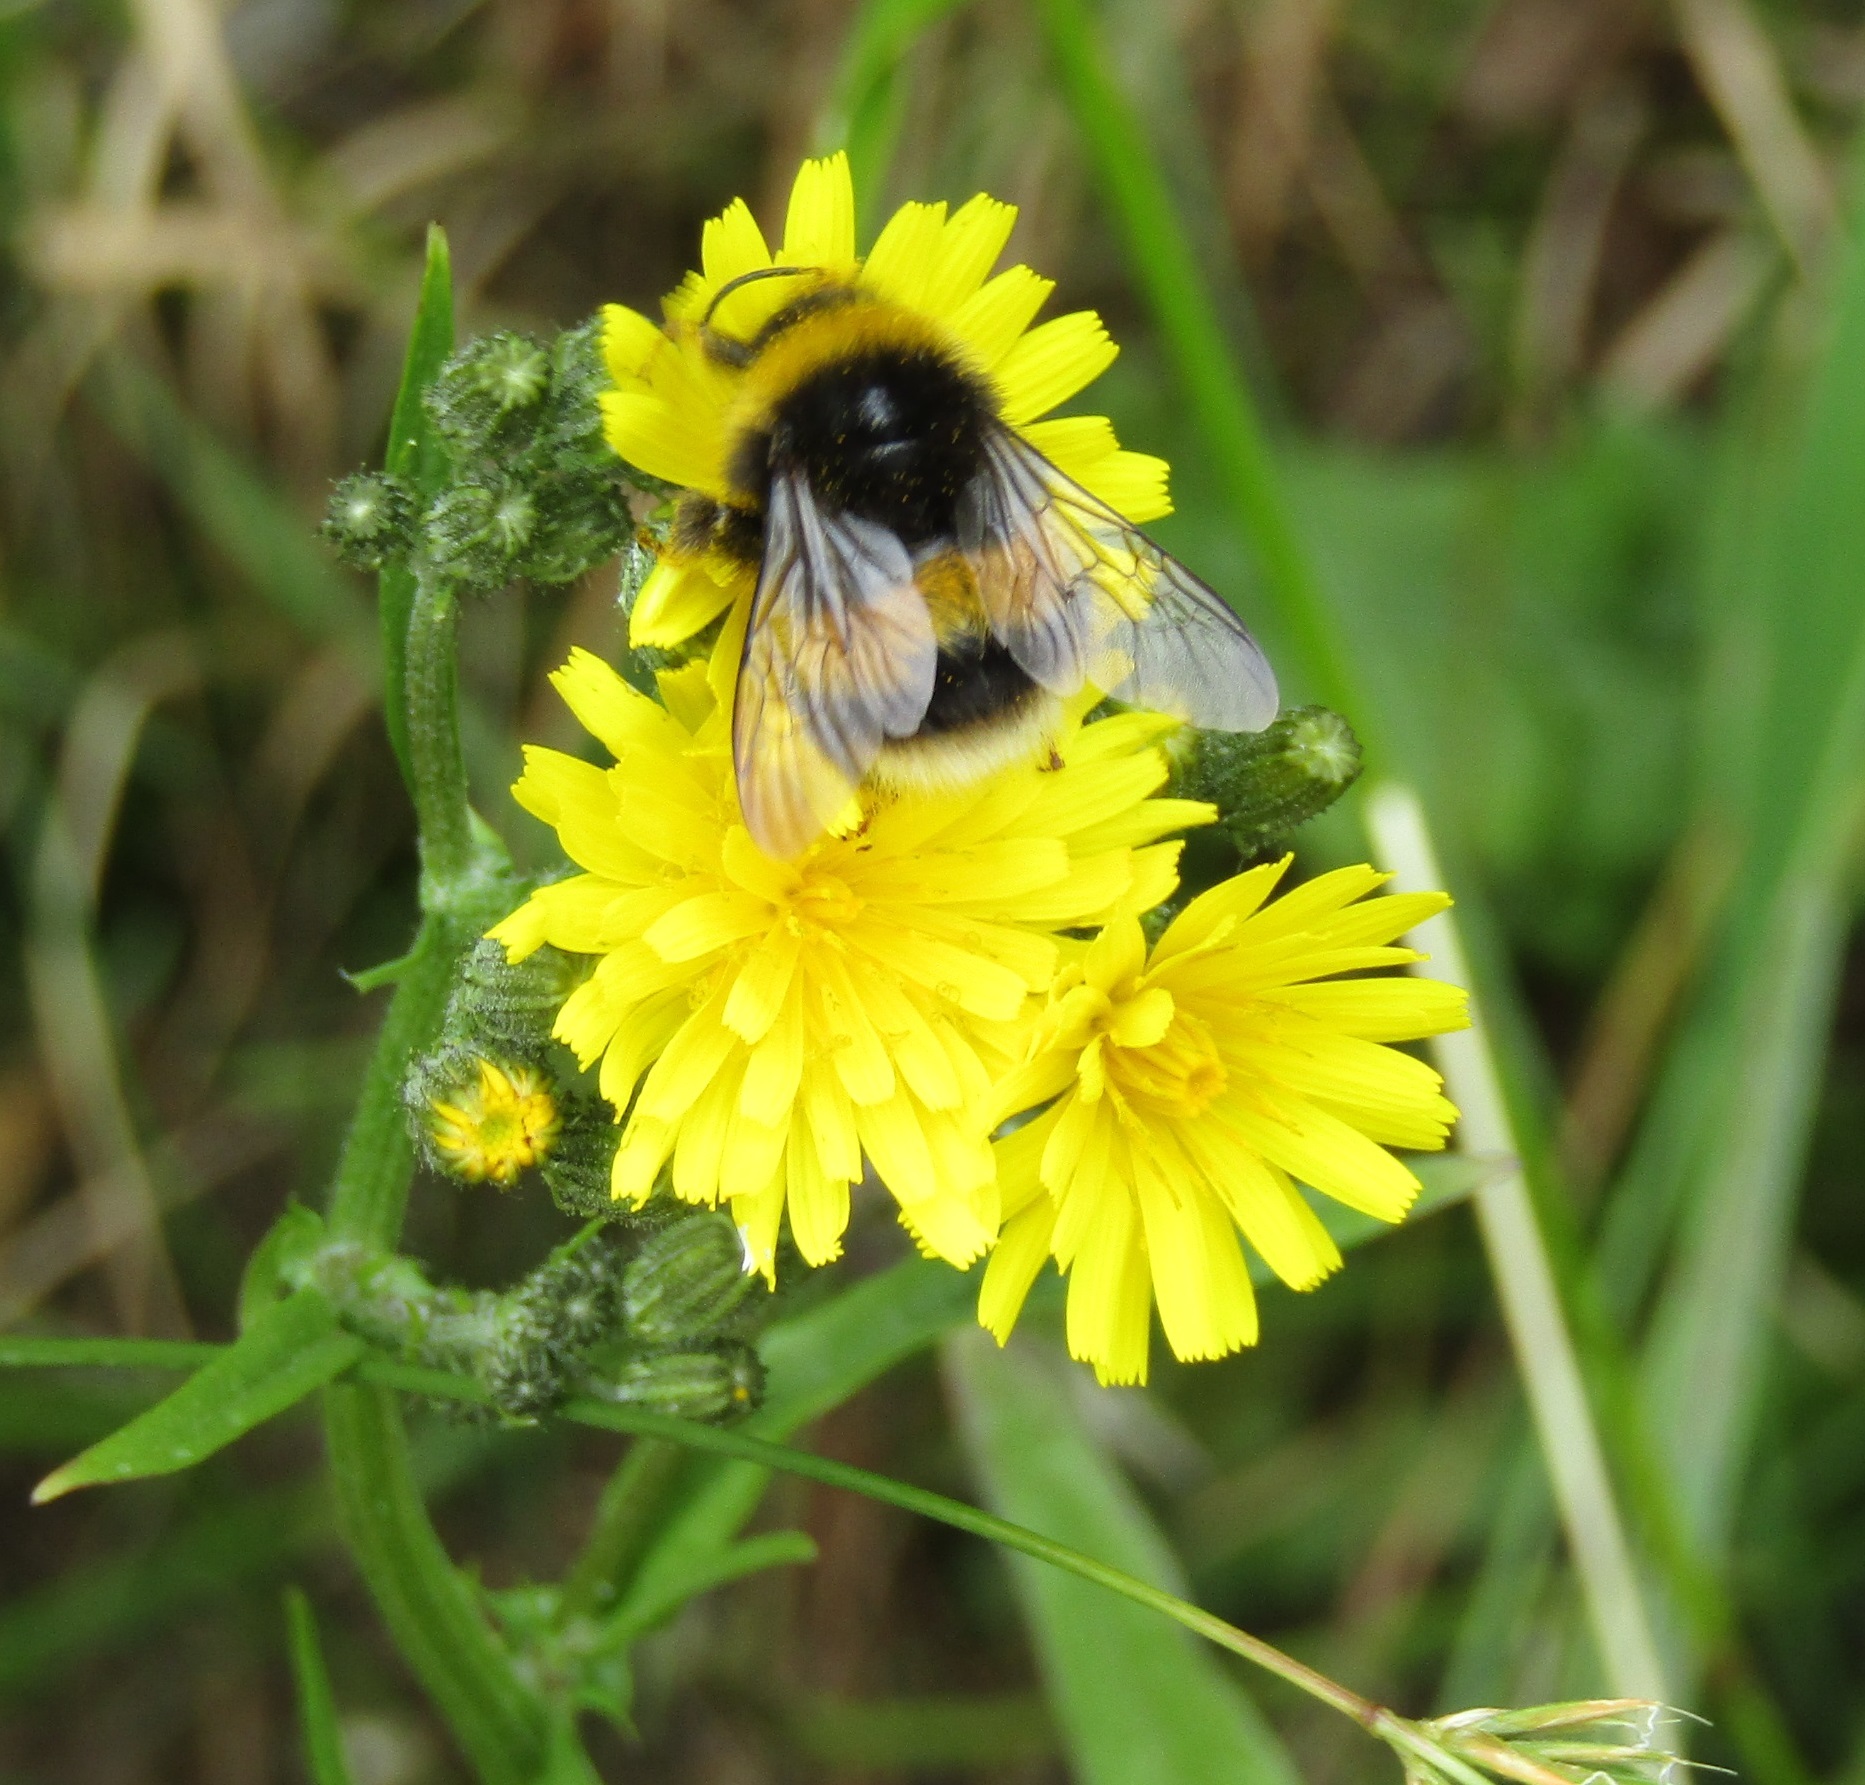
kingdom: Animalia
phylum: Arthropoda
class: Insecta
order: Hymenoptera
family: Apidae
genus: Bombus
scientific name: Bombus terrestris
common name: Buff-tailed bumblebee
